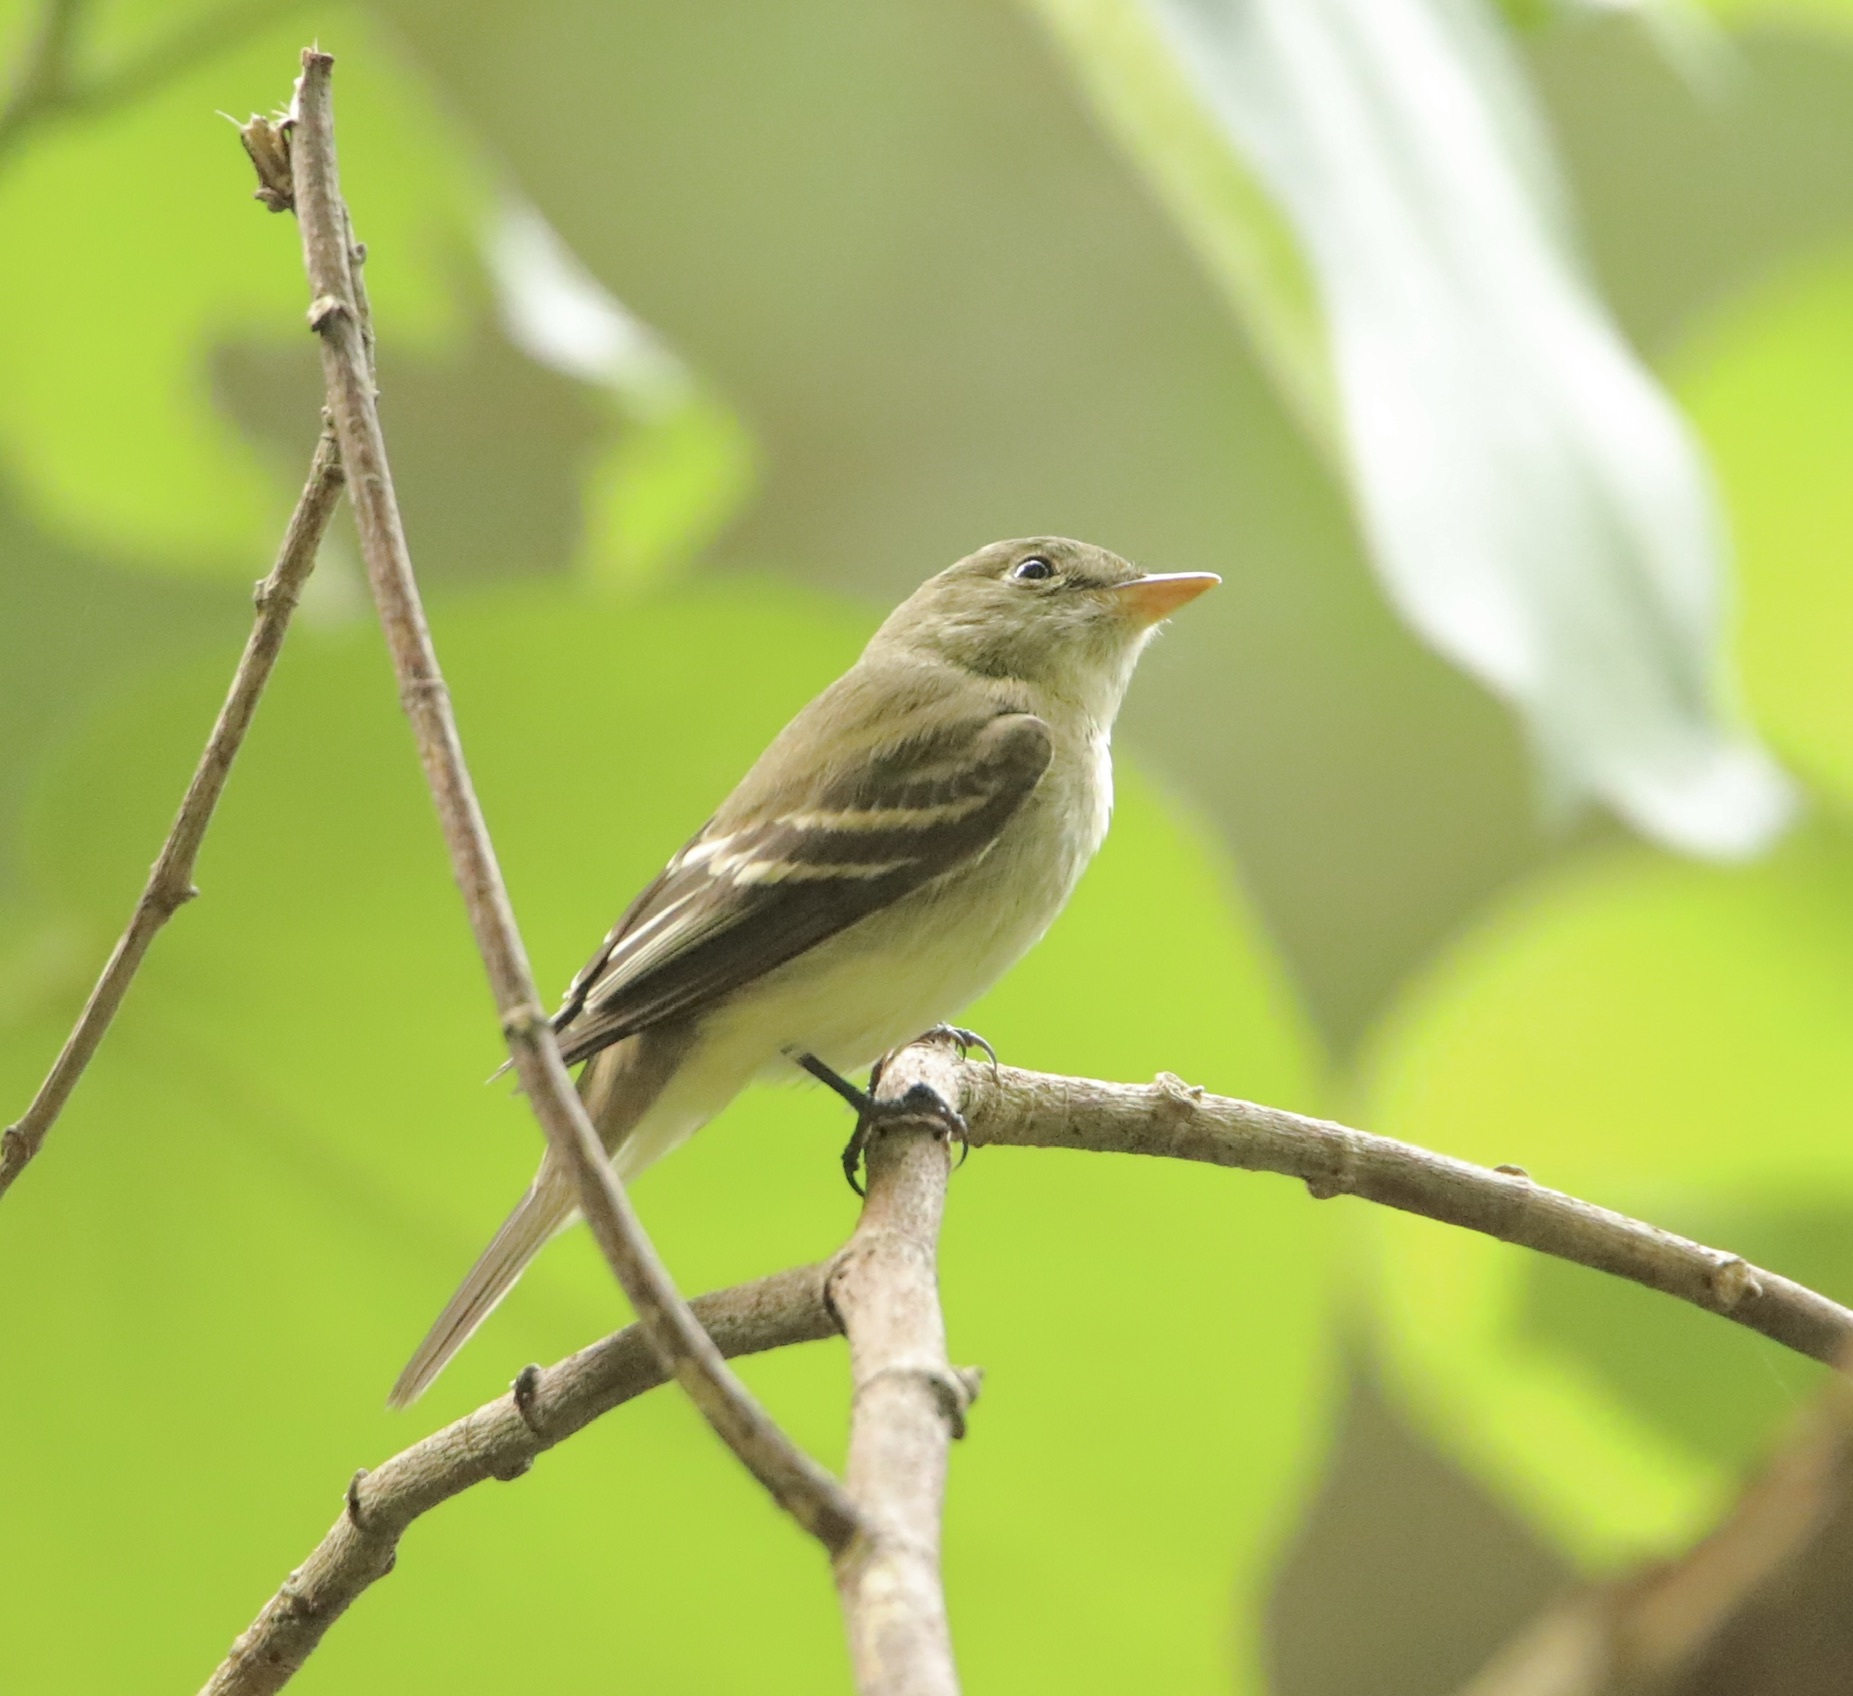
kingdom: Animalia
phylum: Chordata
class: Aves
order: Passeriformes
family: Tyrannidae
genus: Empidonax
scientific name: Empidonax virescens
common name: Acadian flycatcher
